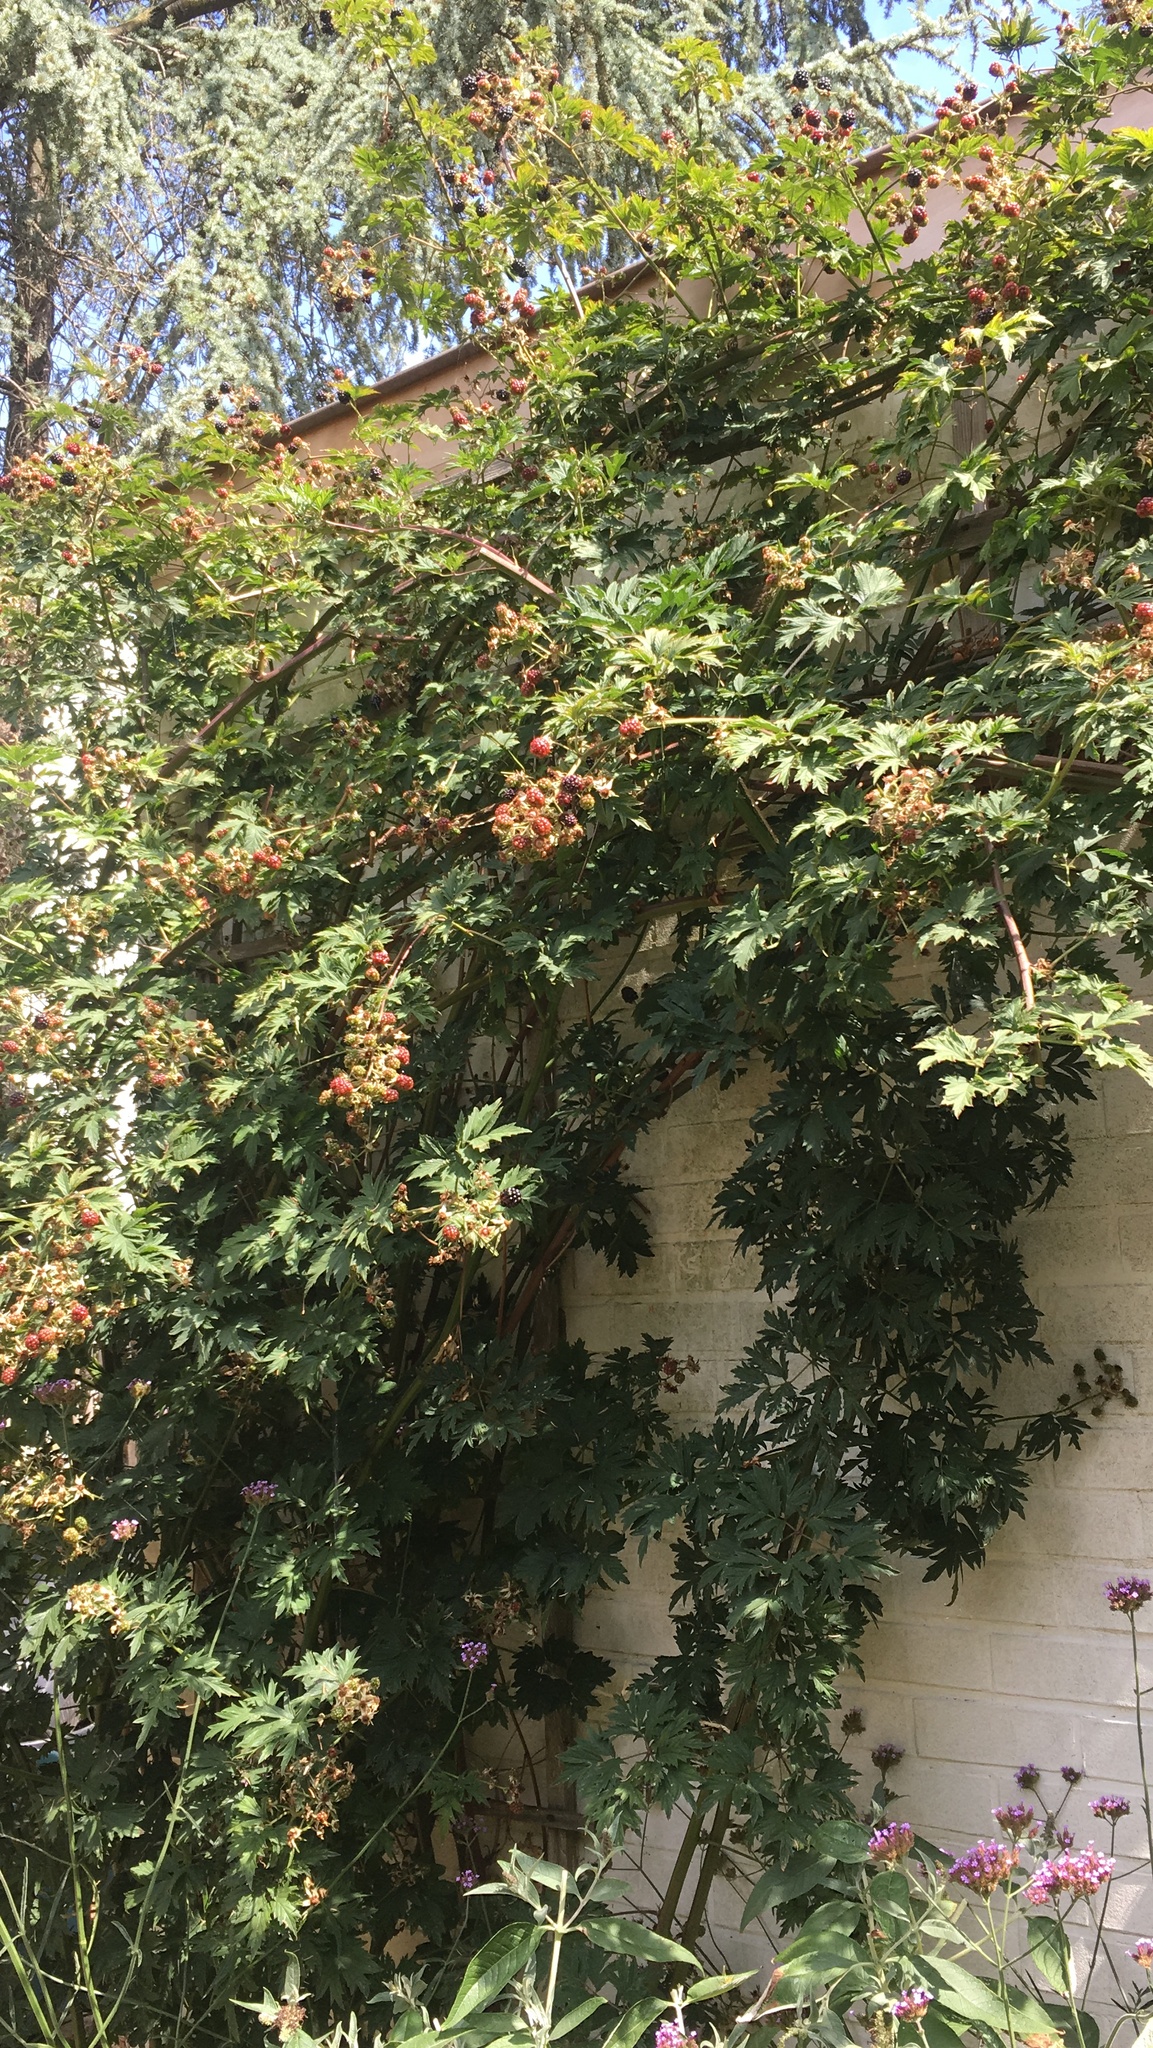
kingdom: Animalia
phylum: Arthropoda
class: Insecta
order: Hymenoptera
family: Vespidae
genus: Vespa
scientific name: Vespa velutina
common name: Asian hornet
